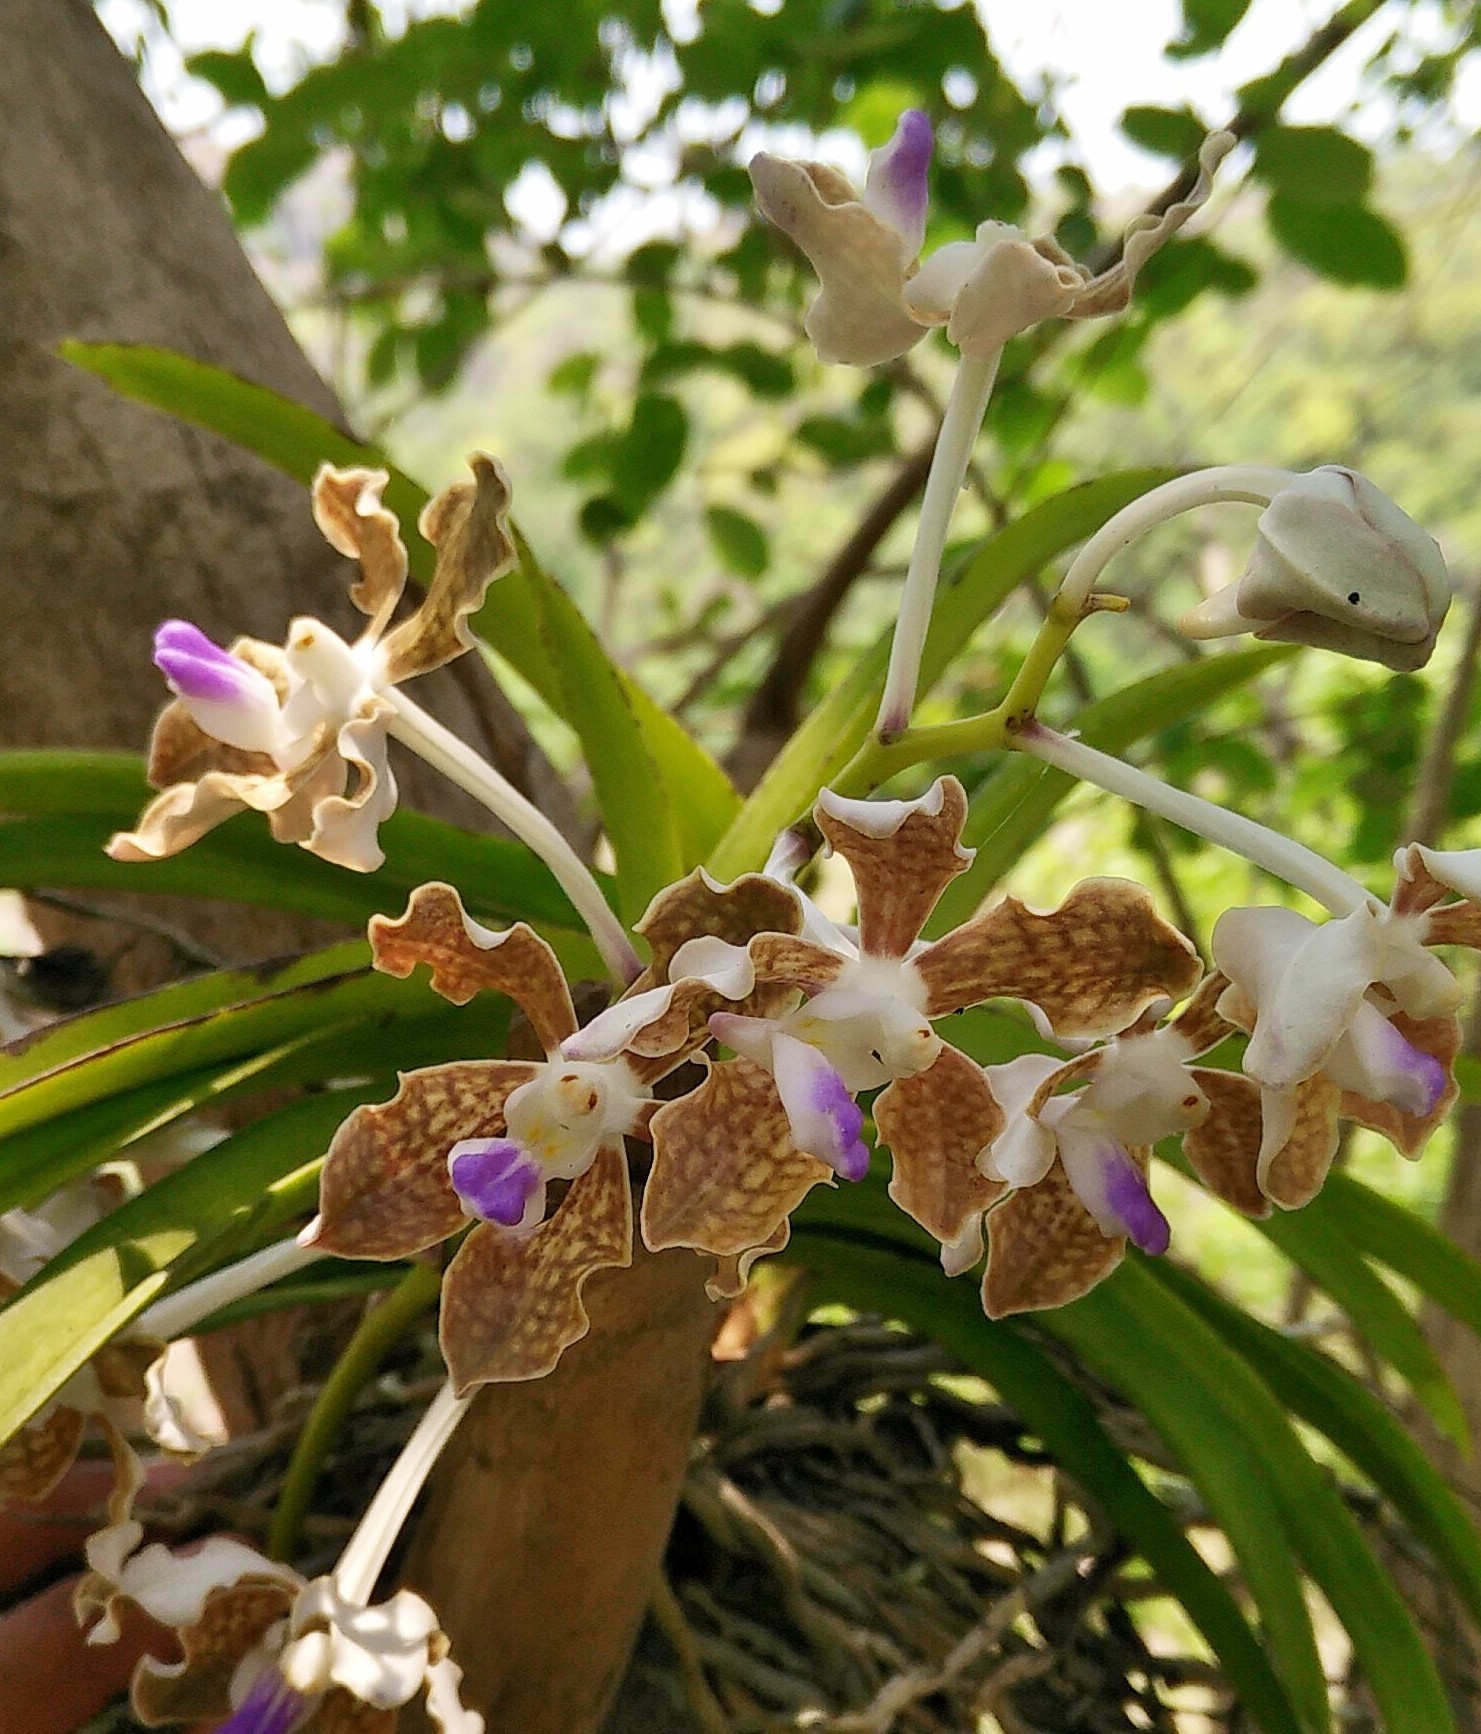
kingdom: Plantae
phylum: Tracheophyta
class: Liliopsida
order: Asparagales
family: Orchidaceae
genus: Vanda
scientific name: Vanda tessellata
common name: Grey orchid
